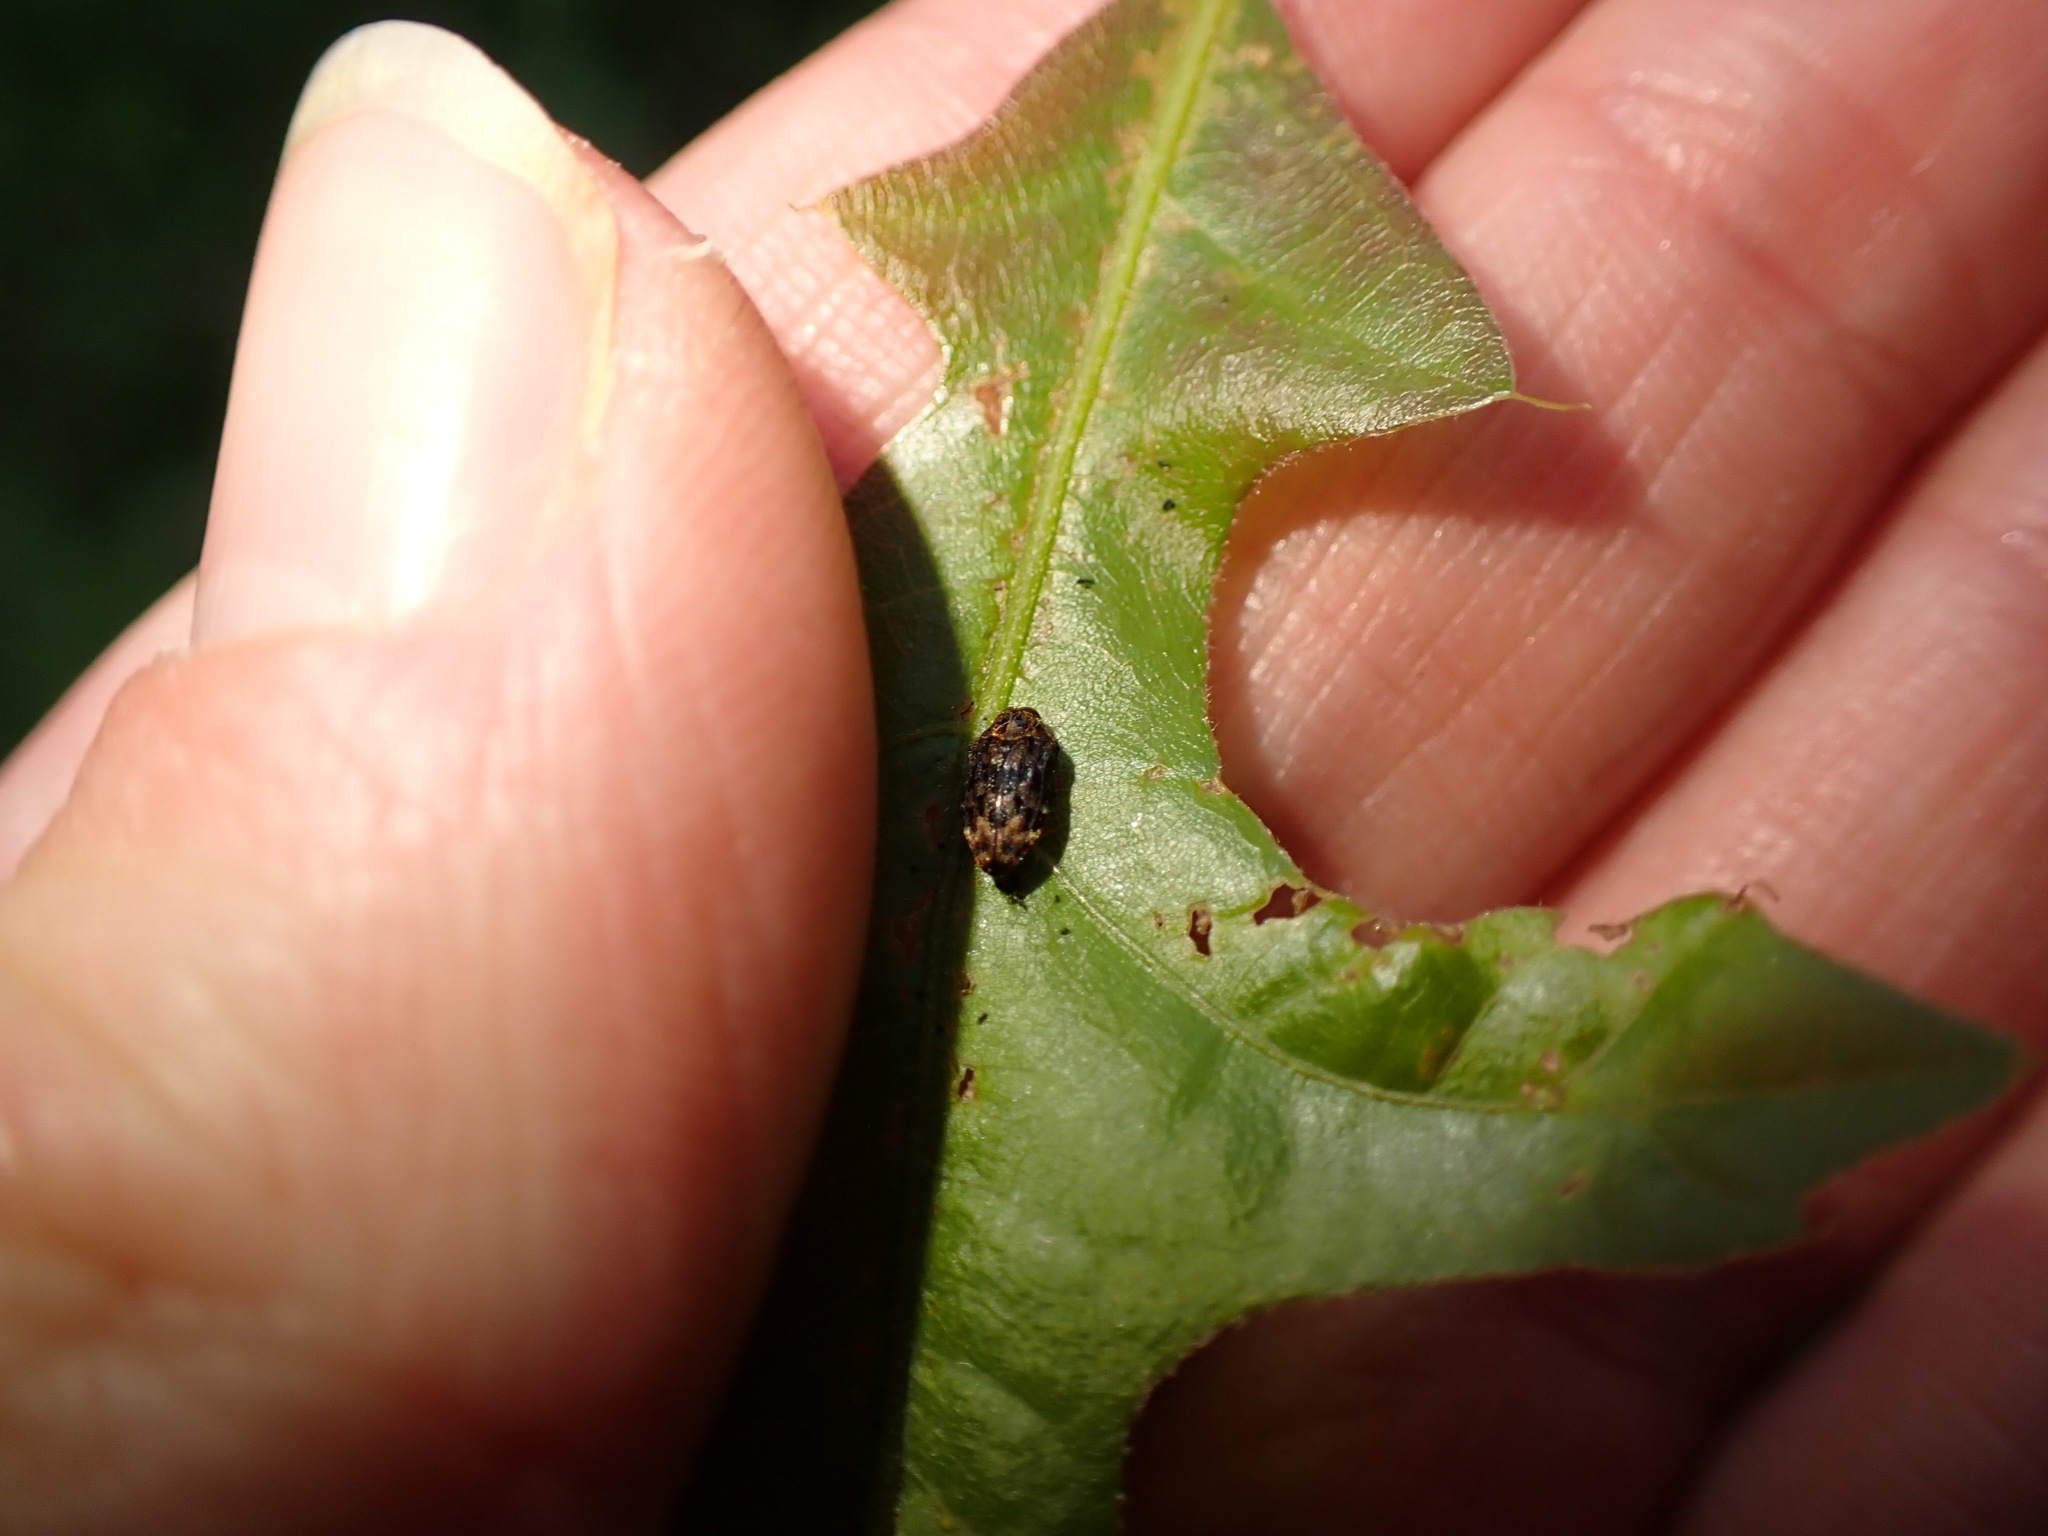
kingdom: Animalia
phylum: Arthropoda
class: Insecta
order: Coleoptera
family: Buprestidae
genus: Brachys
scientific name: Brachys aerosus
